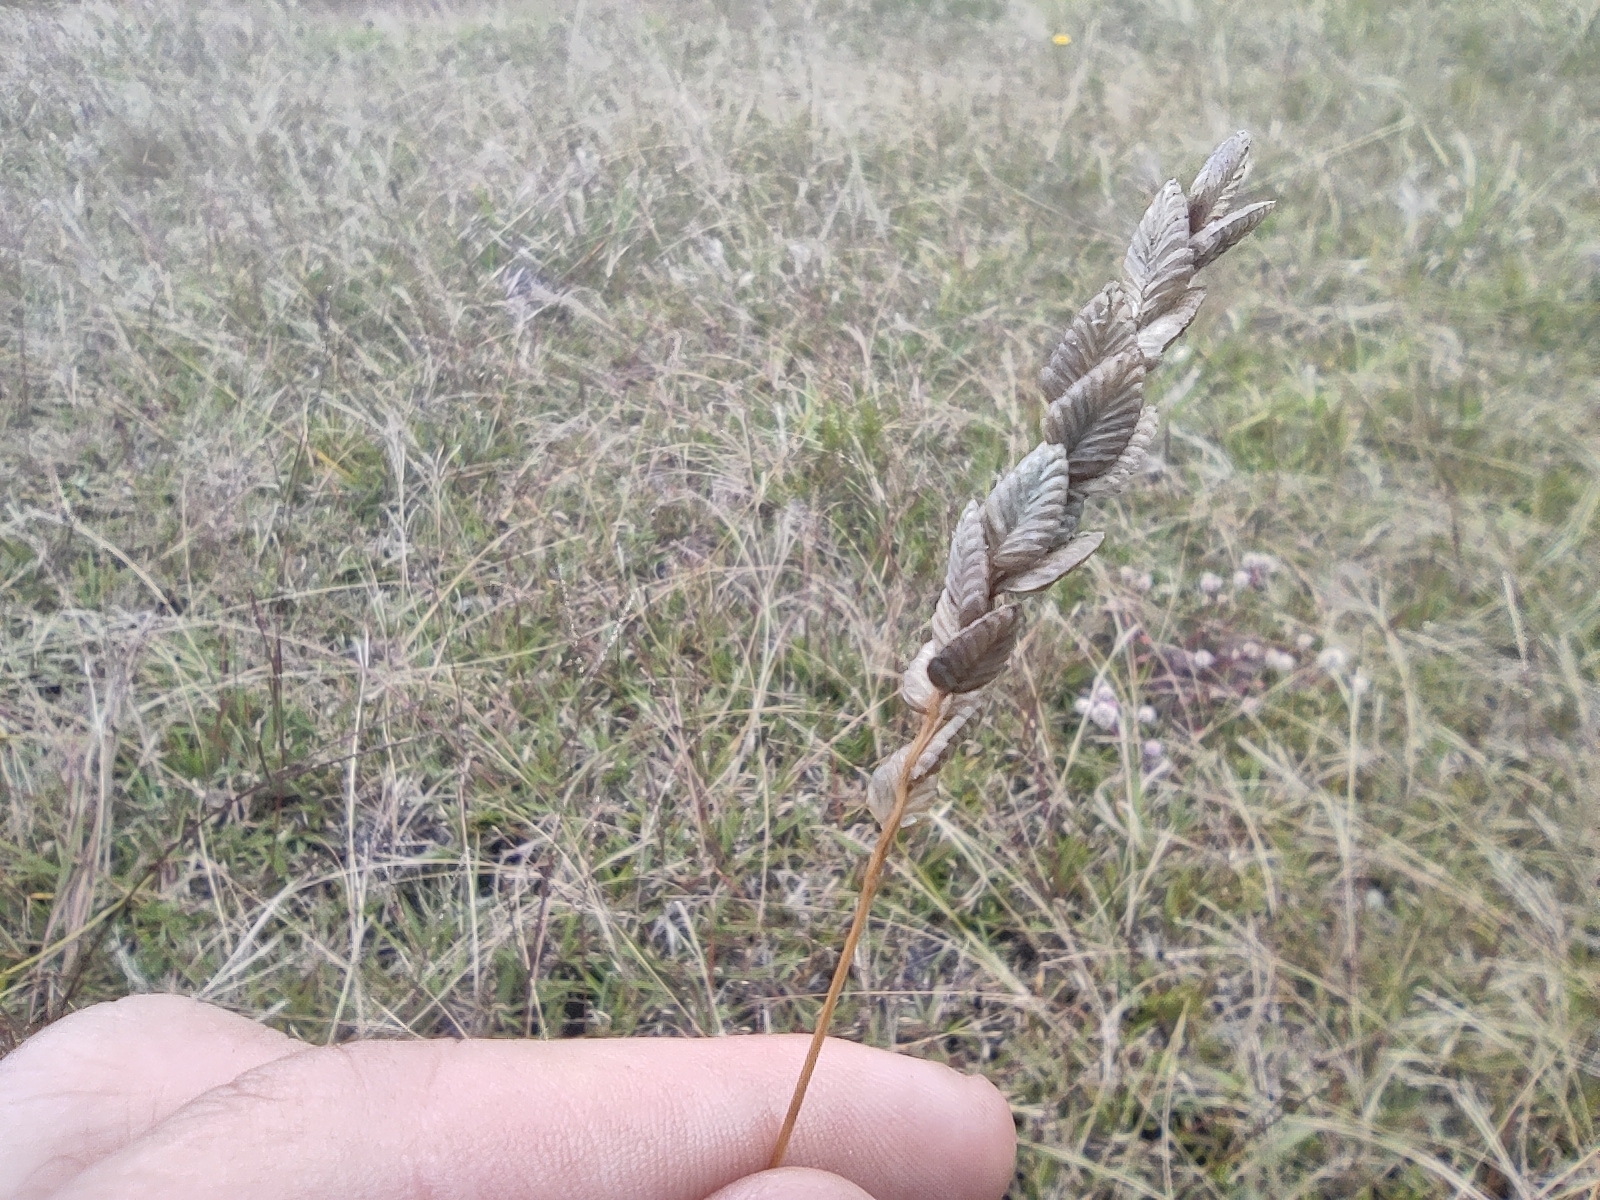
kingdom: Plantae
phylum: Tracheophyta
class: Liliopsida
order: Poales
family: Poaceae
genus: Eragrostis
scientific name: Eragrostis capensis
